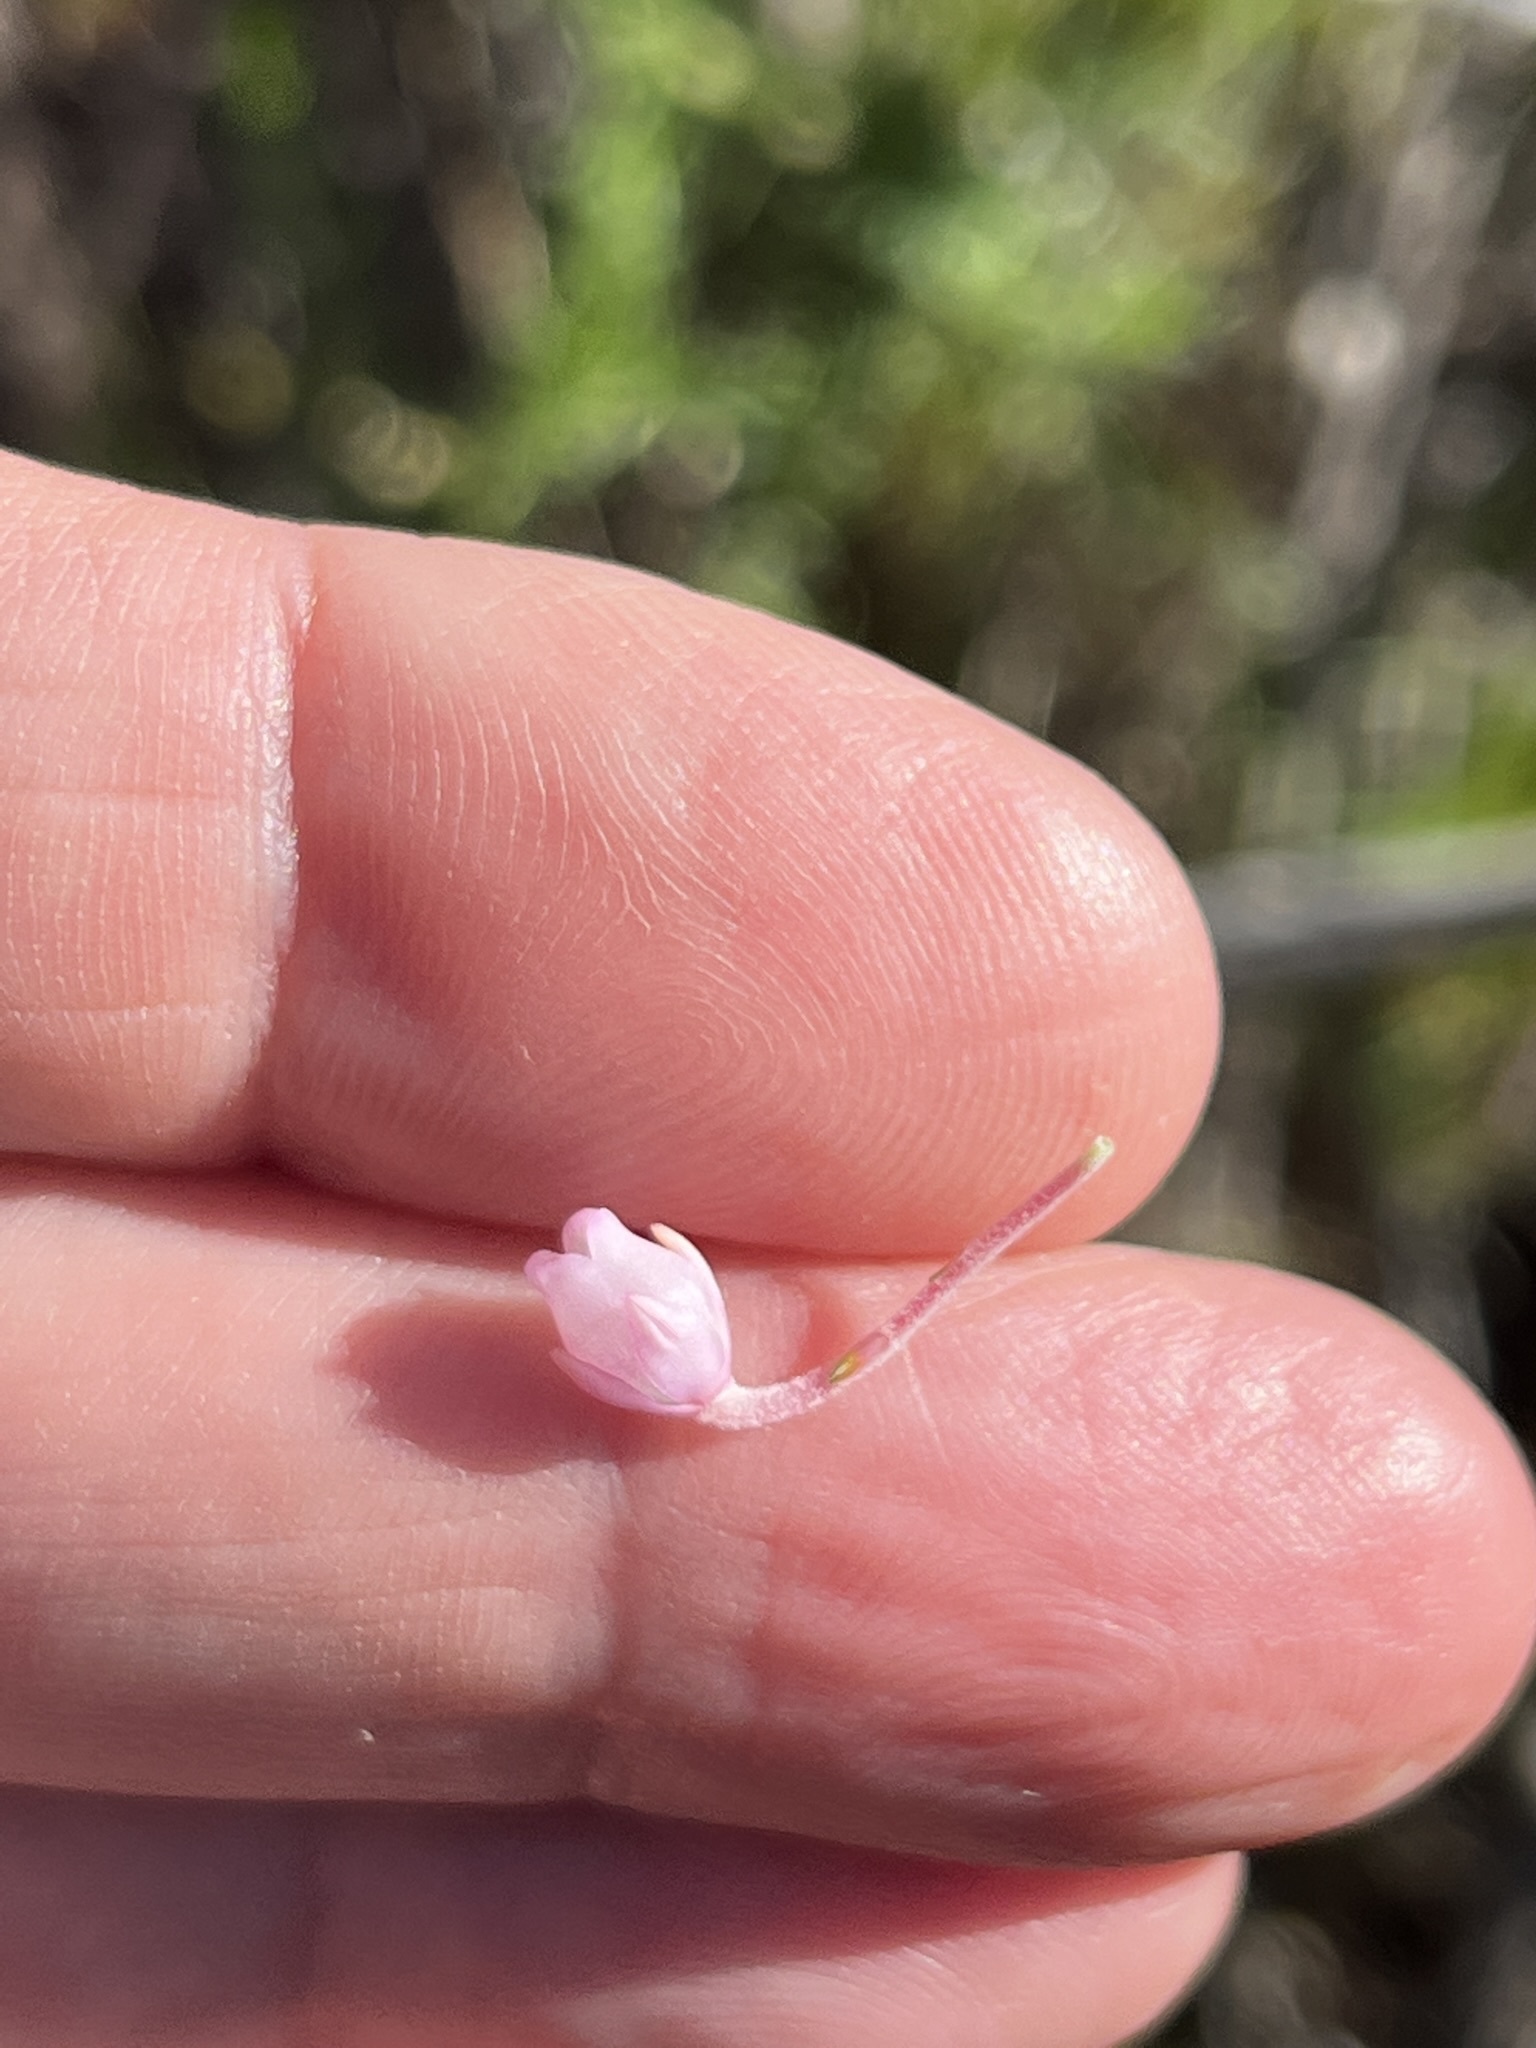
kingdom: Plantae
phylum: Tracheophyta
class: Magnoliopsida
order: Ericales
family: Ericaceae
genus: Erica
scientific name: Erica irregularis
